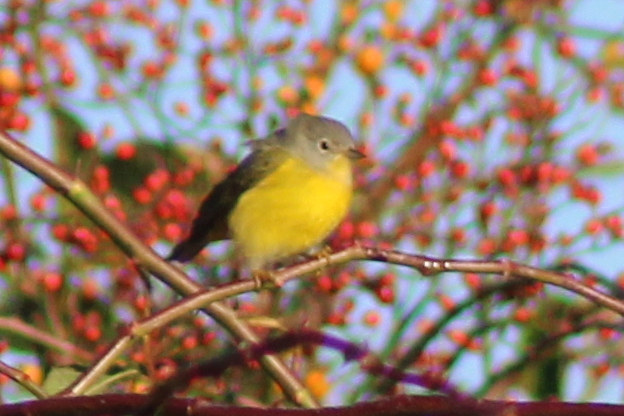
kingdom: Animalia
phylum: Chordata
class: Aves
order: Passeriformes
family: Parulidae
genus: Leiothlypis
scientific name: Leiothlypis ruficapilla
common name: Nashville warbler
